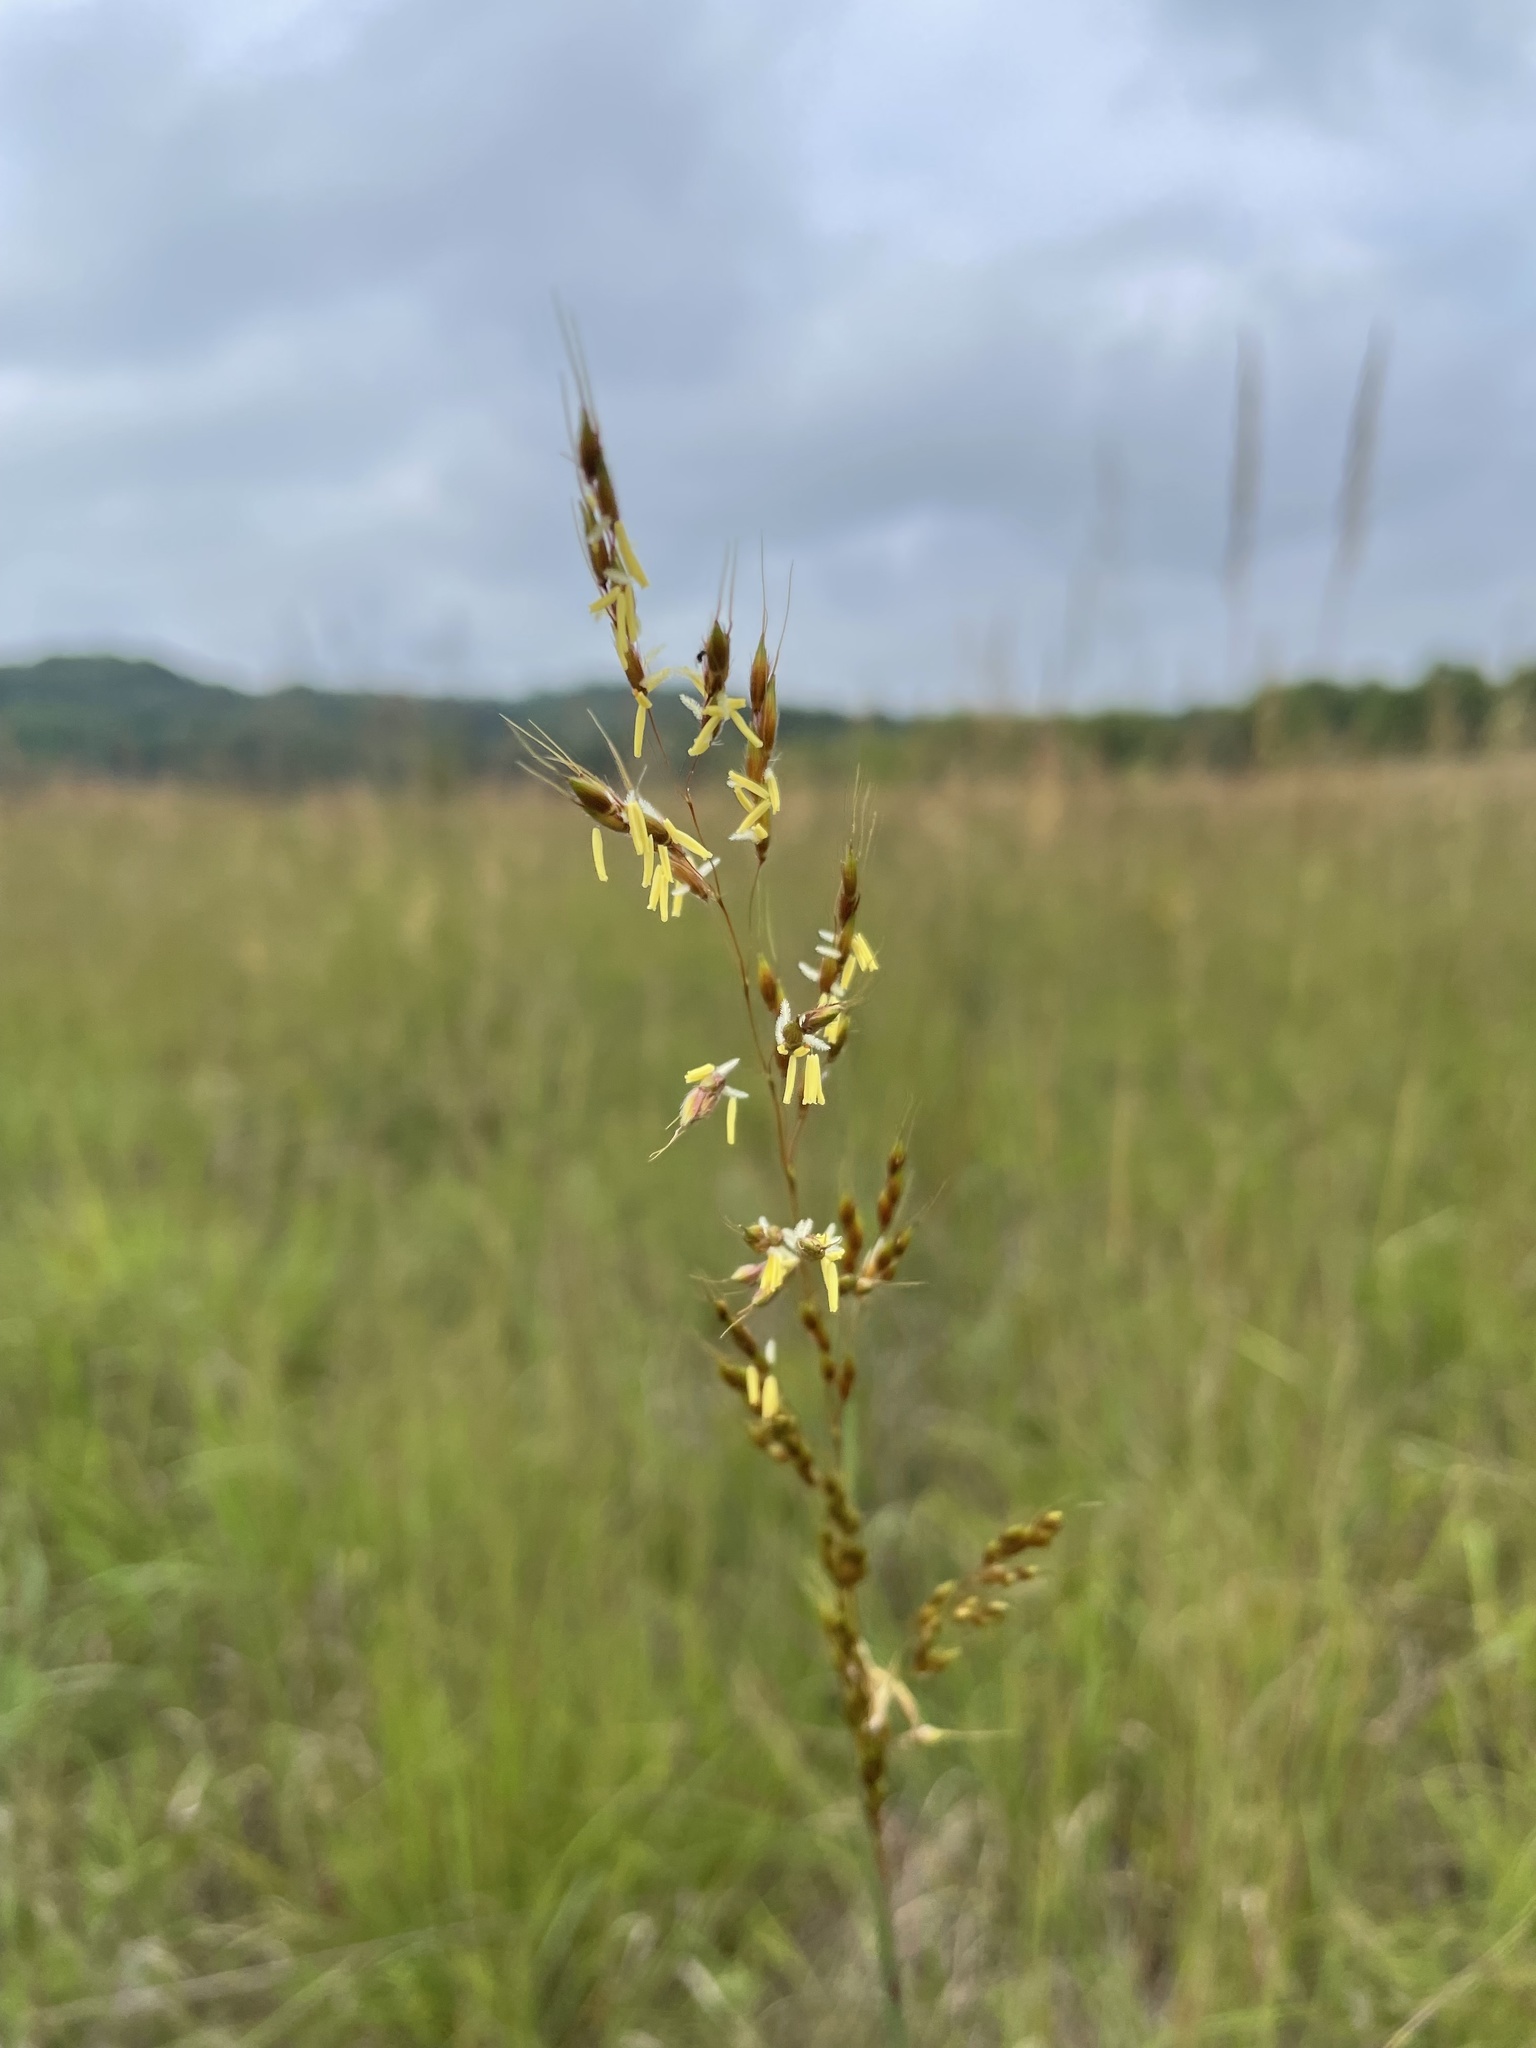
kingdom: Plantae
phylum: Tracheophyta
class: Liliopsida
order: Poales
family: Poaceae
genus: Sorghastrum
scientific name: Sorghastrum nutans
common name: Indian grass
